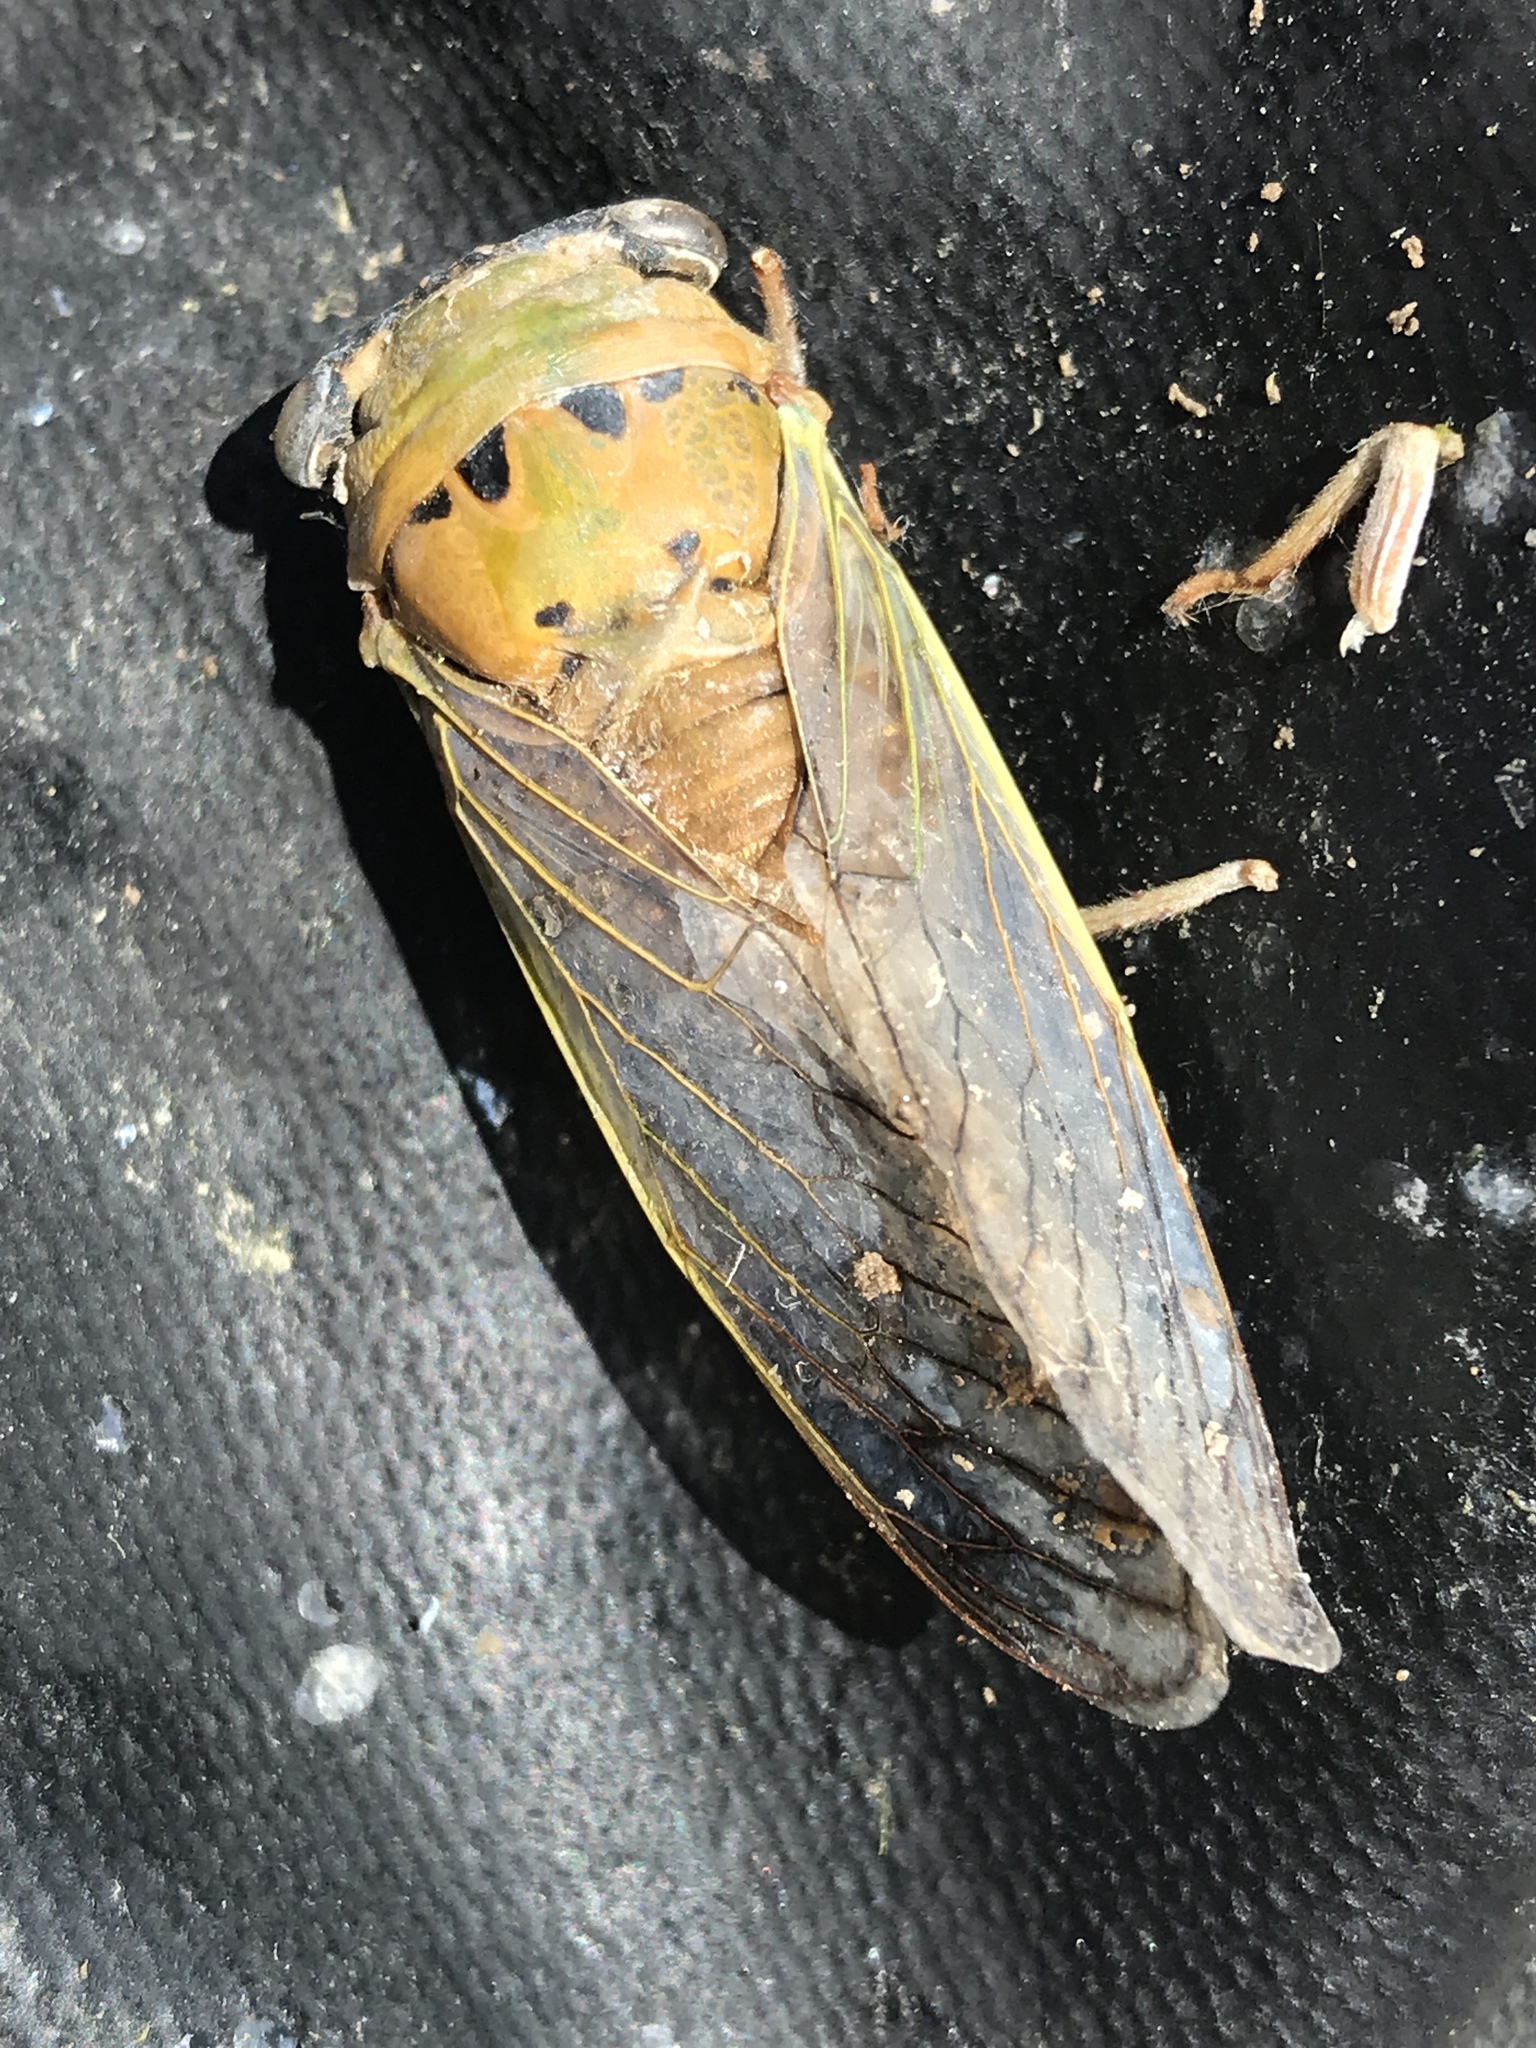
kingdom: Animalia
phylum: Arthropoda
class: Insecta
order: Hemiptera
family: Cicadidae
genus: Neotibicen
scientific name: Neotibicen superbus
